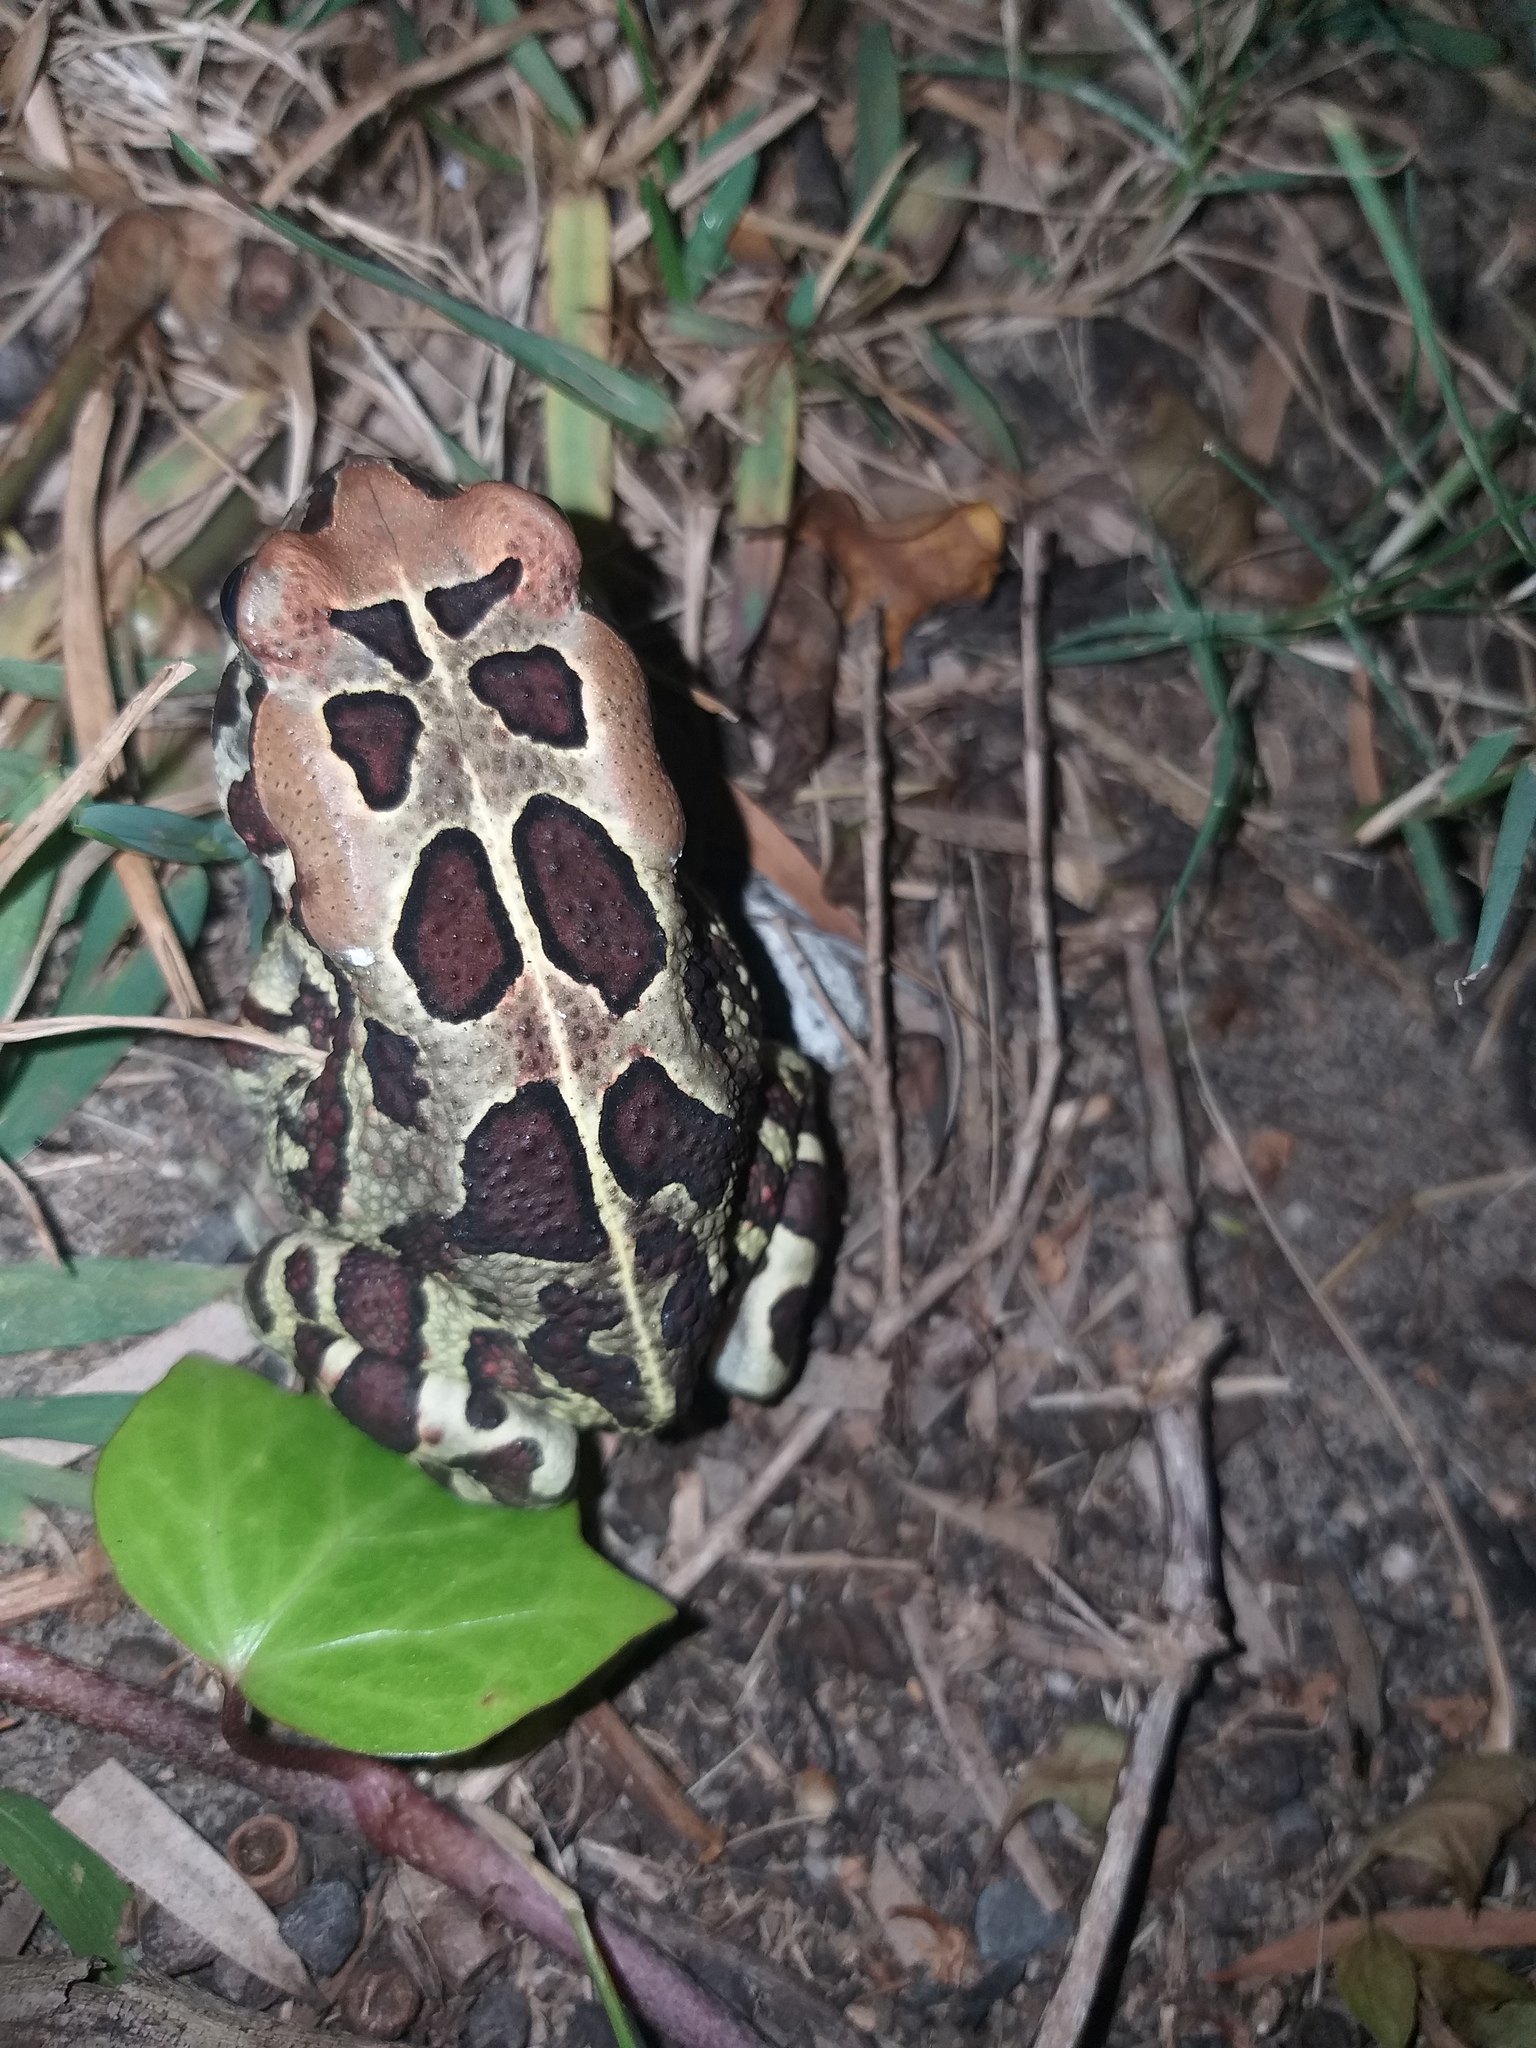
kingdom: Animalia
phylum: Chordata
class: Amphibia
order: Anura
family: Bufonidae
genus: Sclerophrys
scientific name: Sclerophrys pantherina
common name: Panther toad
